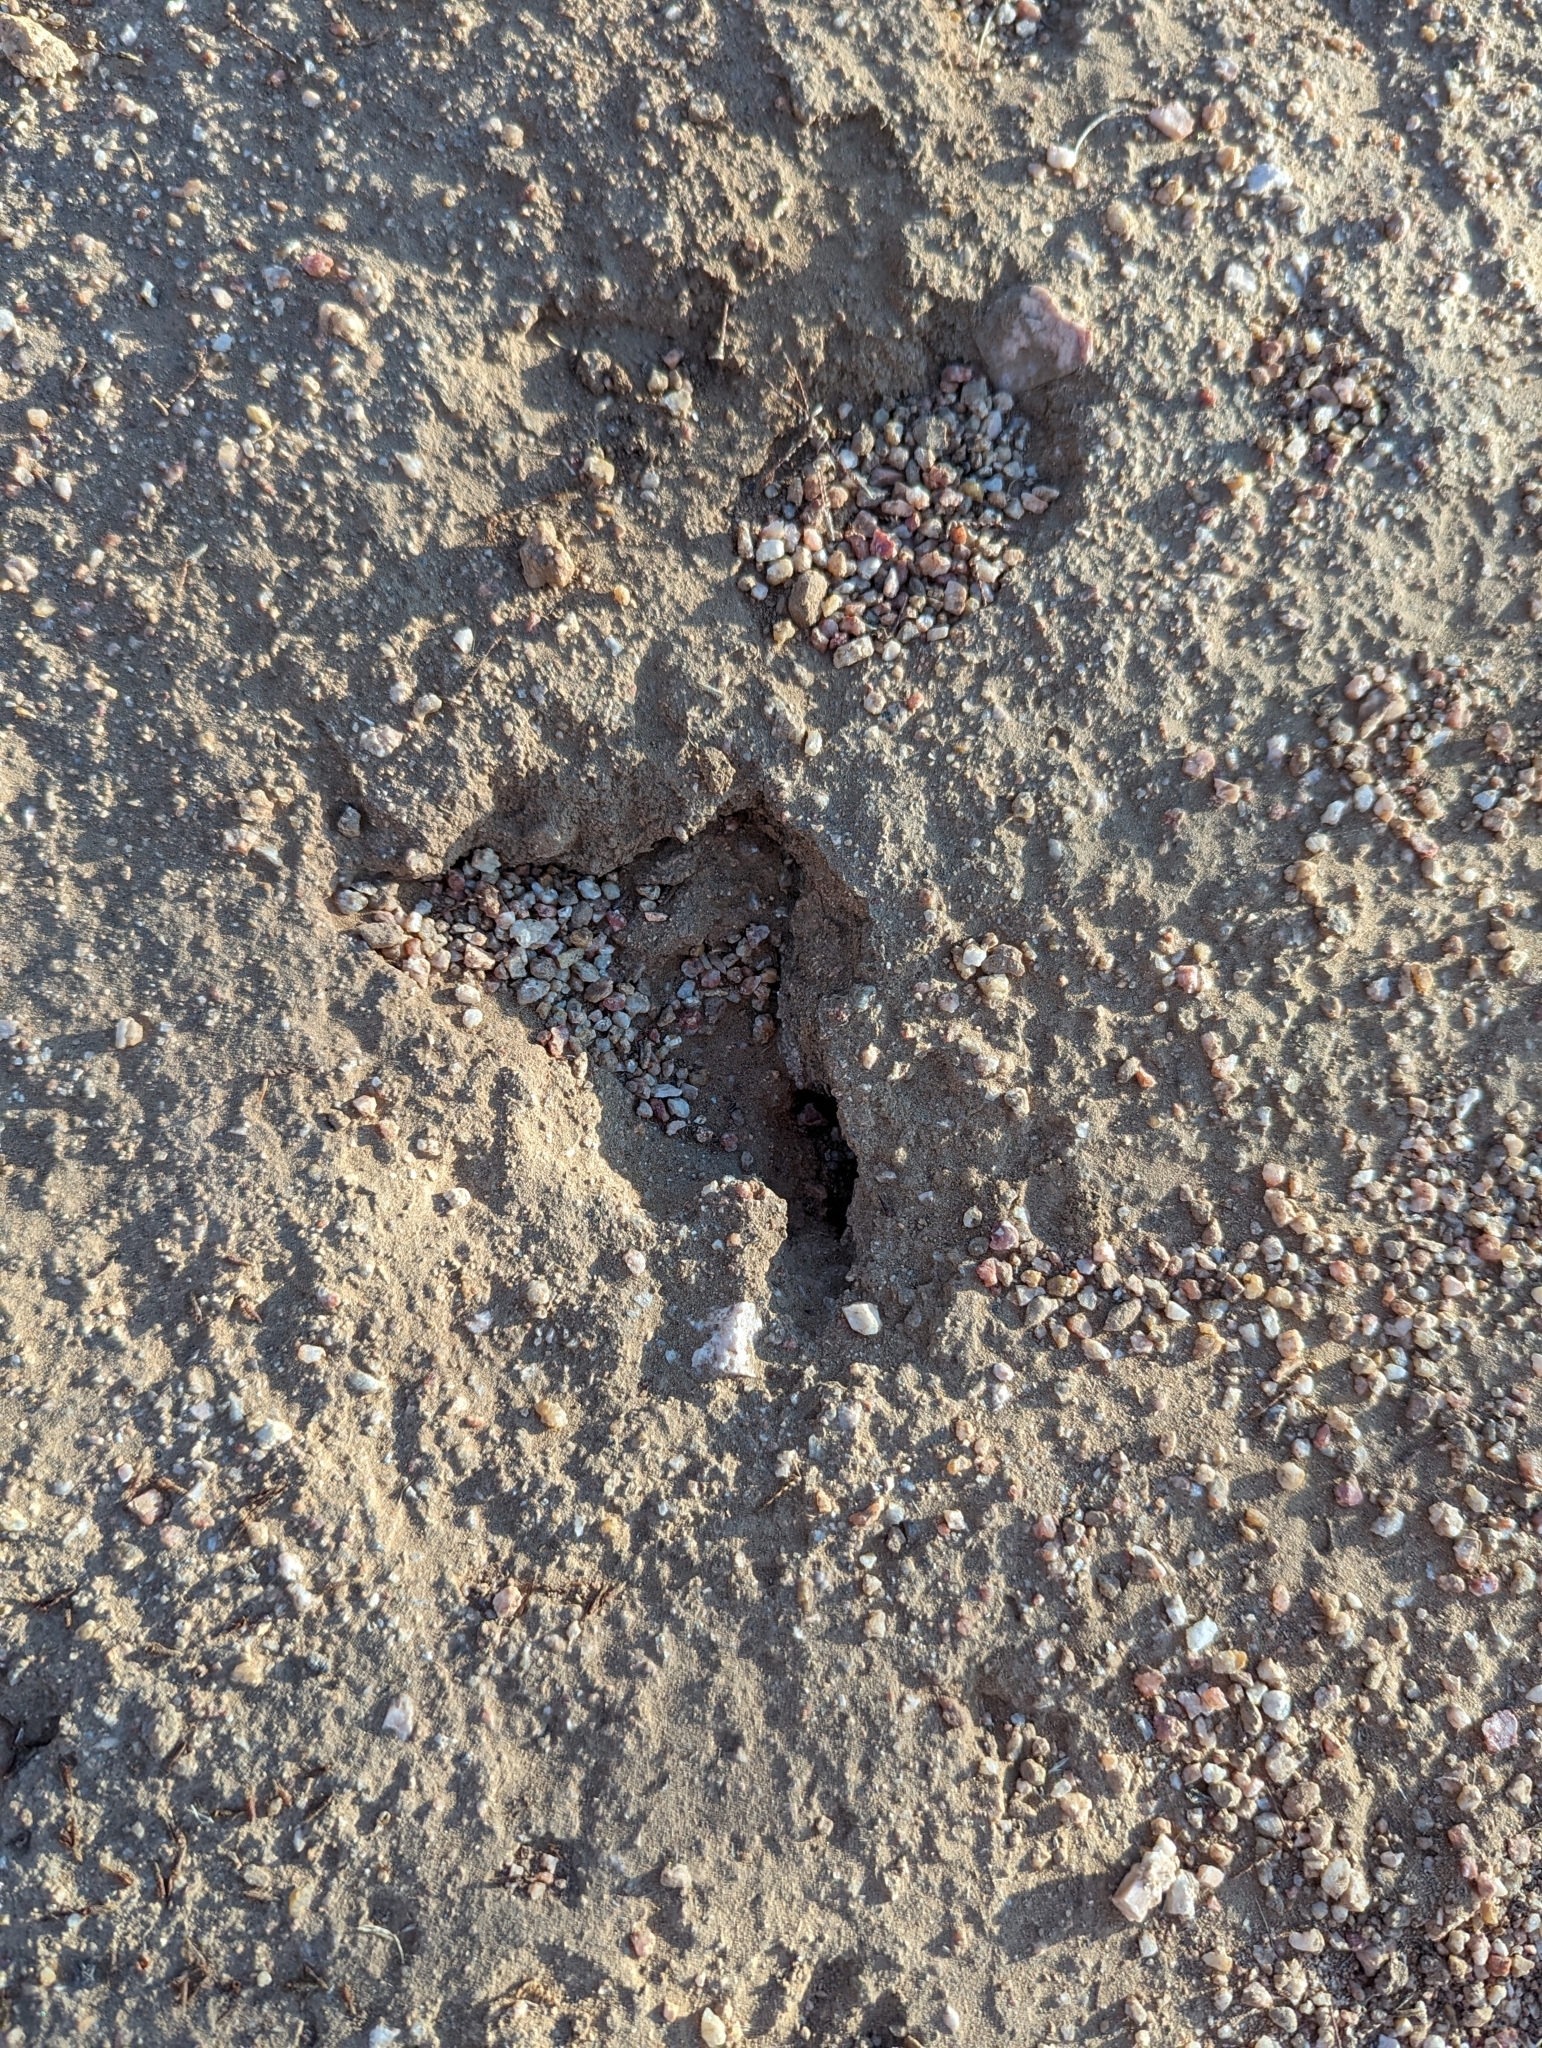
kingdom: Animalia
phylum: Arthropoda
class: Insecta
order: Hymenoptera
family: Formicidae
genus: Pogonomyrmex
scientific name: Pogonomyrmex rugosus
